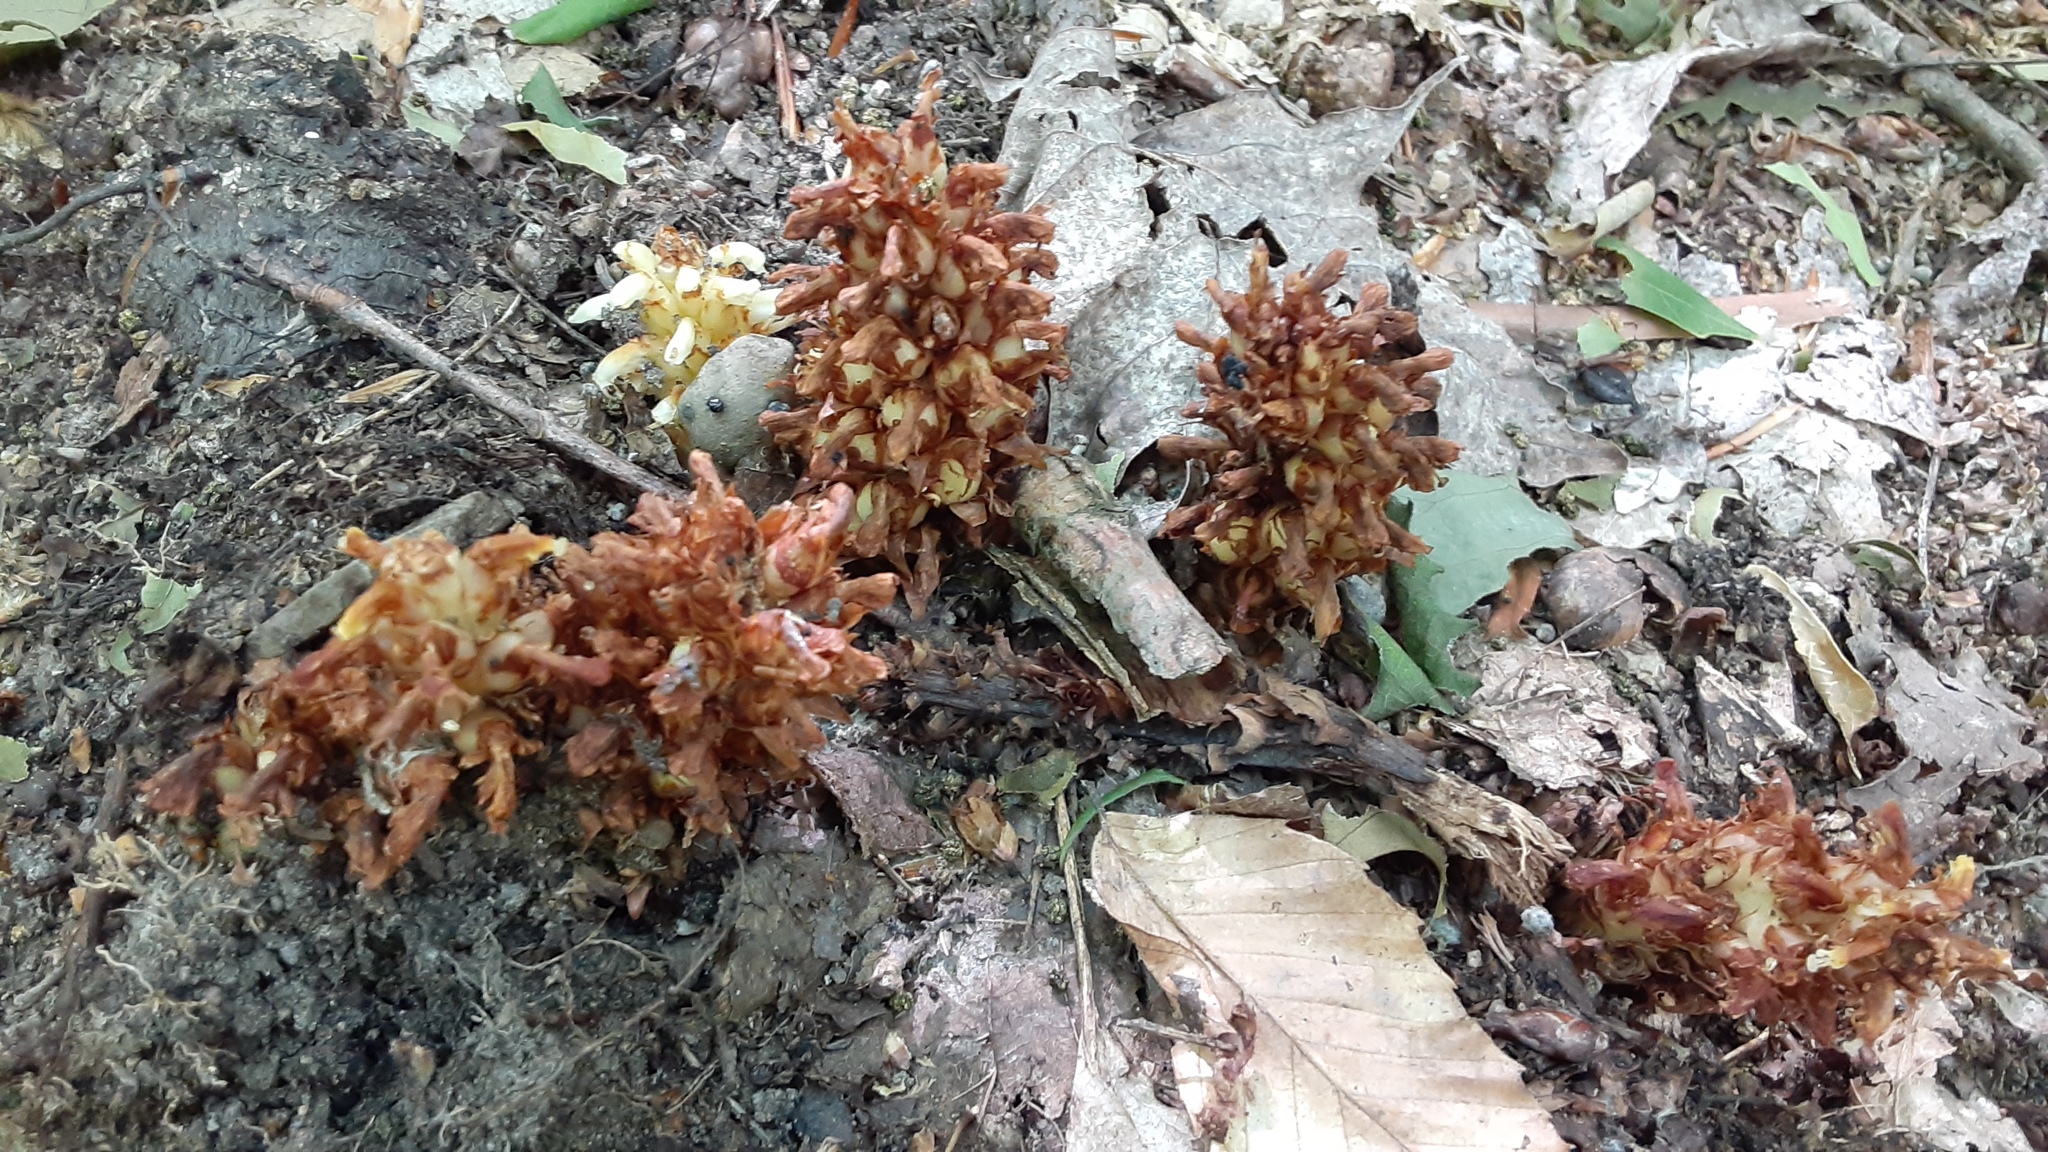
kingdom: Plantae
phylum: Tracheophyta
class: Magnoliopsida
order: Lamiales
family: Orobanchaceae
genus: Conopholis
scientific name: Conopholis americana
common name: American cancer-root
